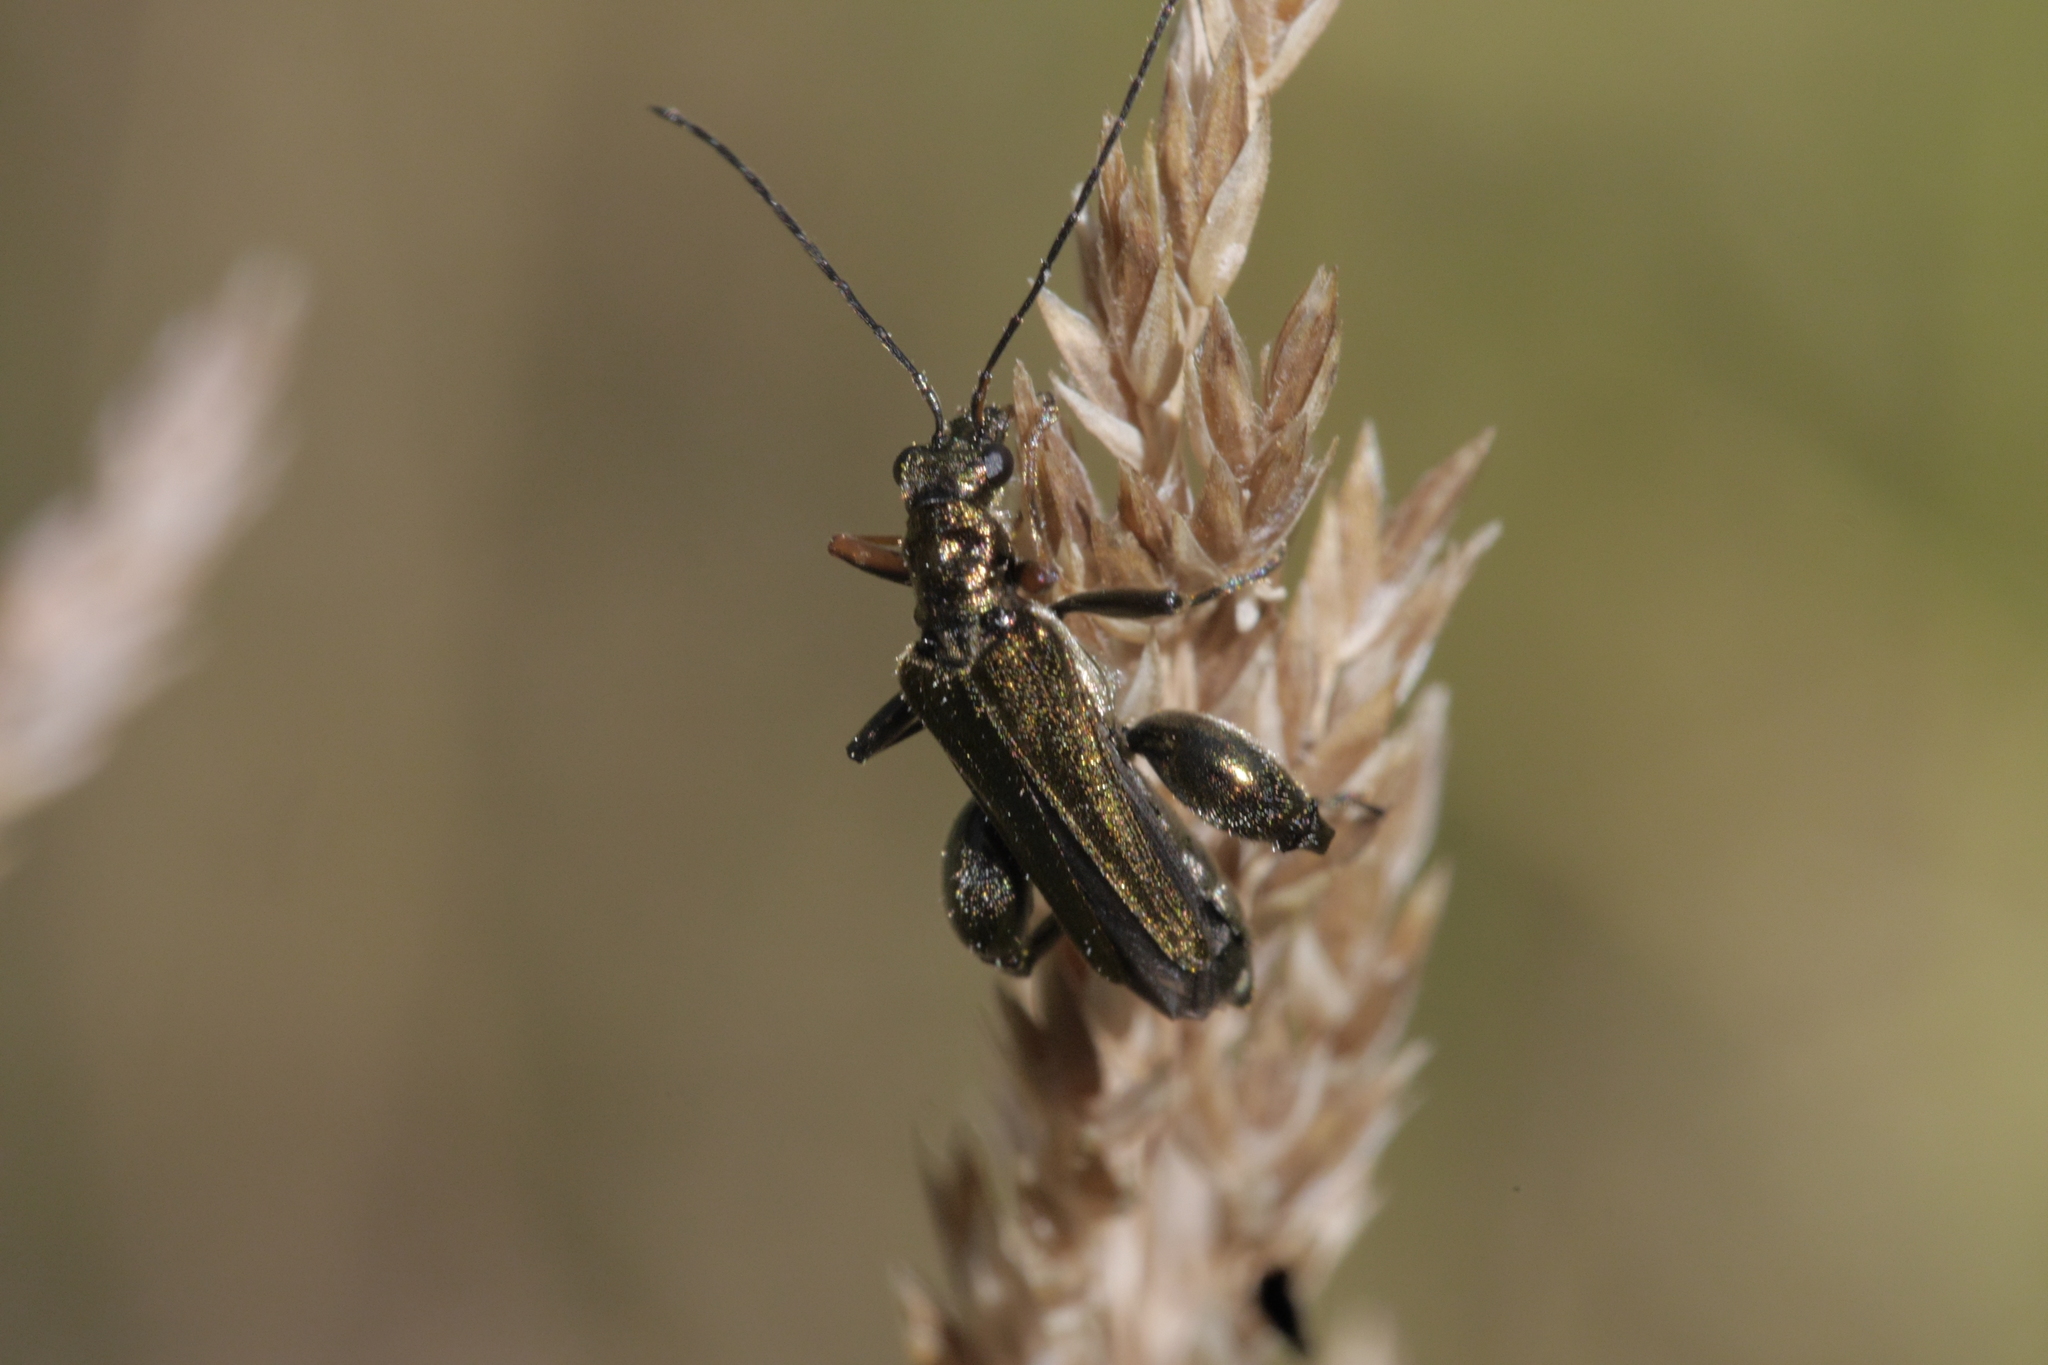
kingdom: Animalia
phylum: Arthropoda
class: Insecta
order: Coleoptera
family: Oedemeridae
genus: Oedemera
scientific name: Oedemera flavipes
